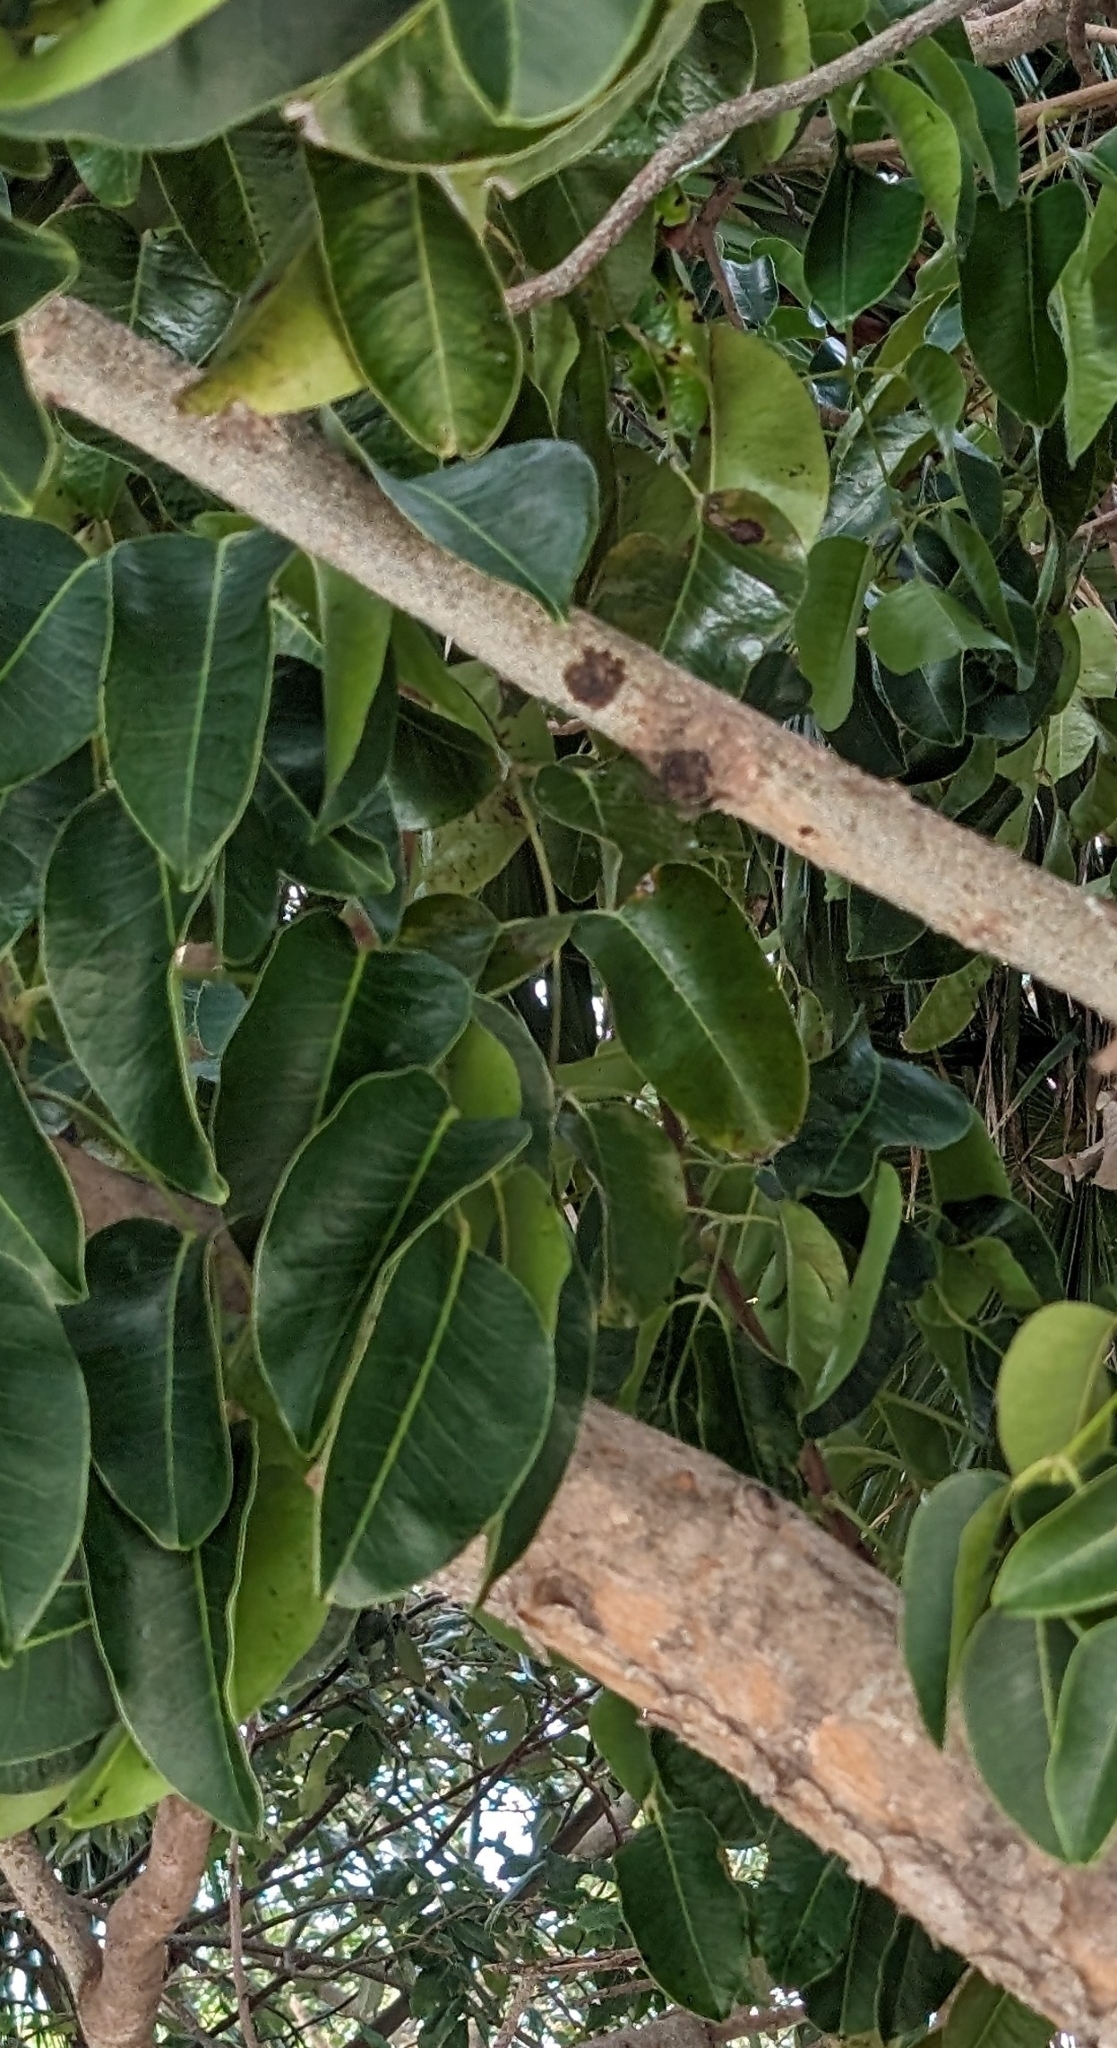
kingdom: Plantae
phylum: Tracheophyta
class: Magnoliopsida
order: Sapindales
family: Anacardiaceae
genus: Metopium
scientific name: Metopium toxiferum
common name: Florida poisontree
